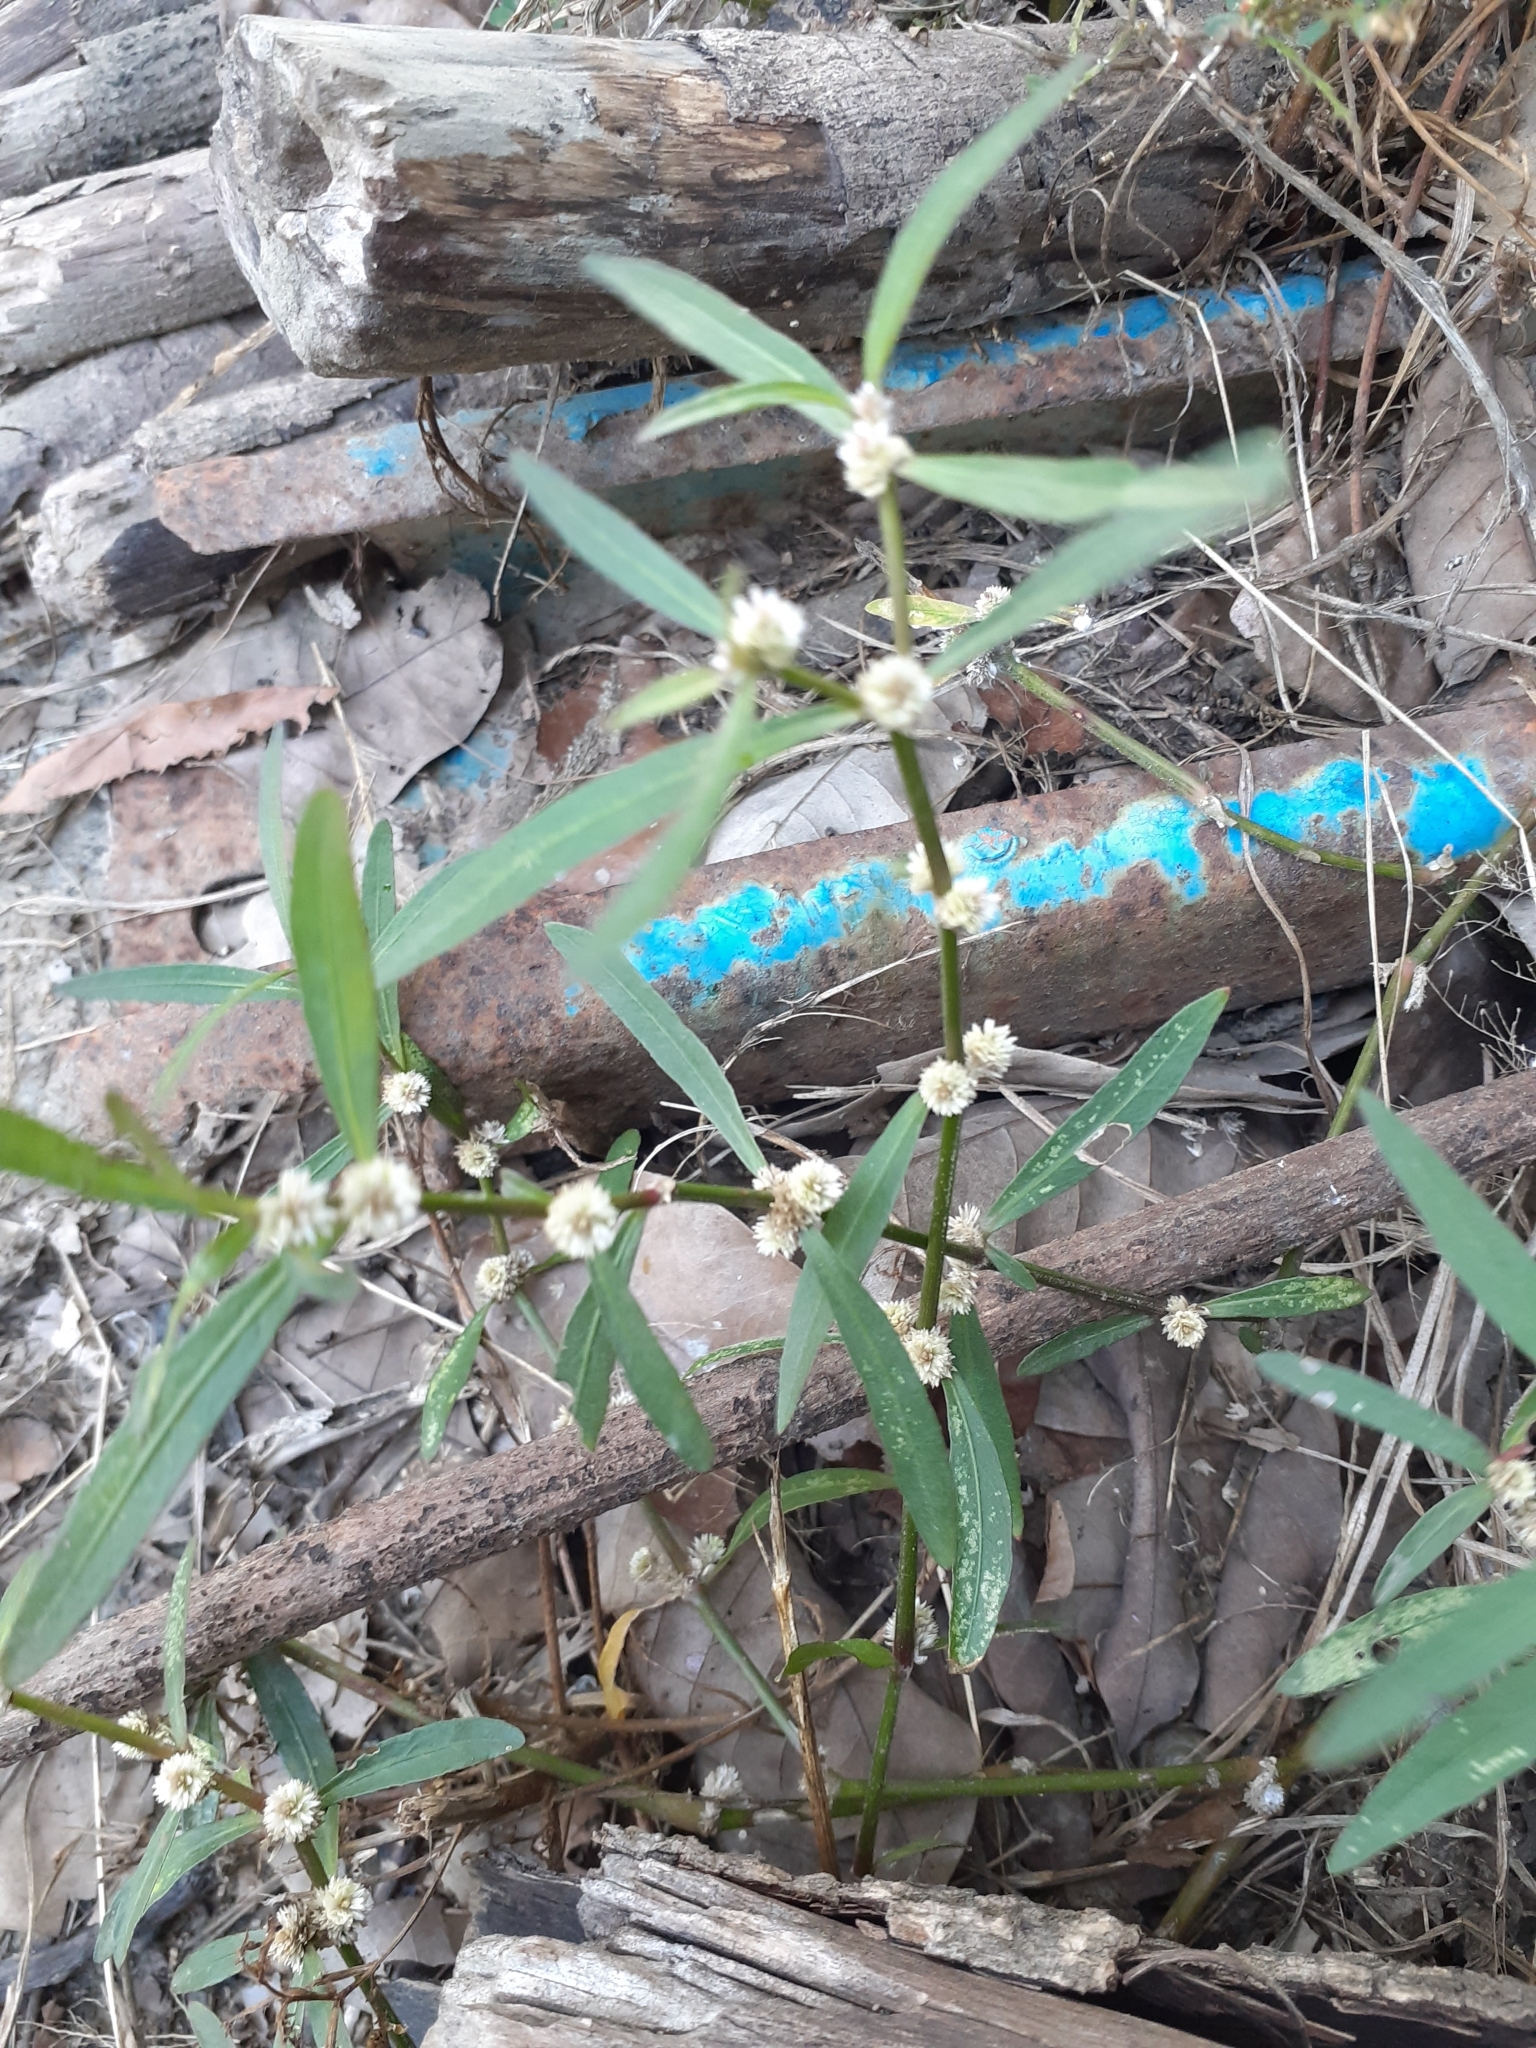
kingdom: Plantae
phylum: Tracheophyta
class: Magnoliopsida
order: Caryophyllales
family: Amaranthaceae
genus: Alternanthera
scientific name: Alternanthera sessilis
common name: Sessile joyweed
